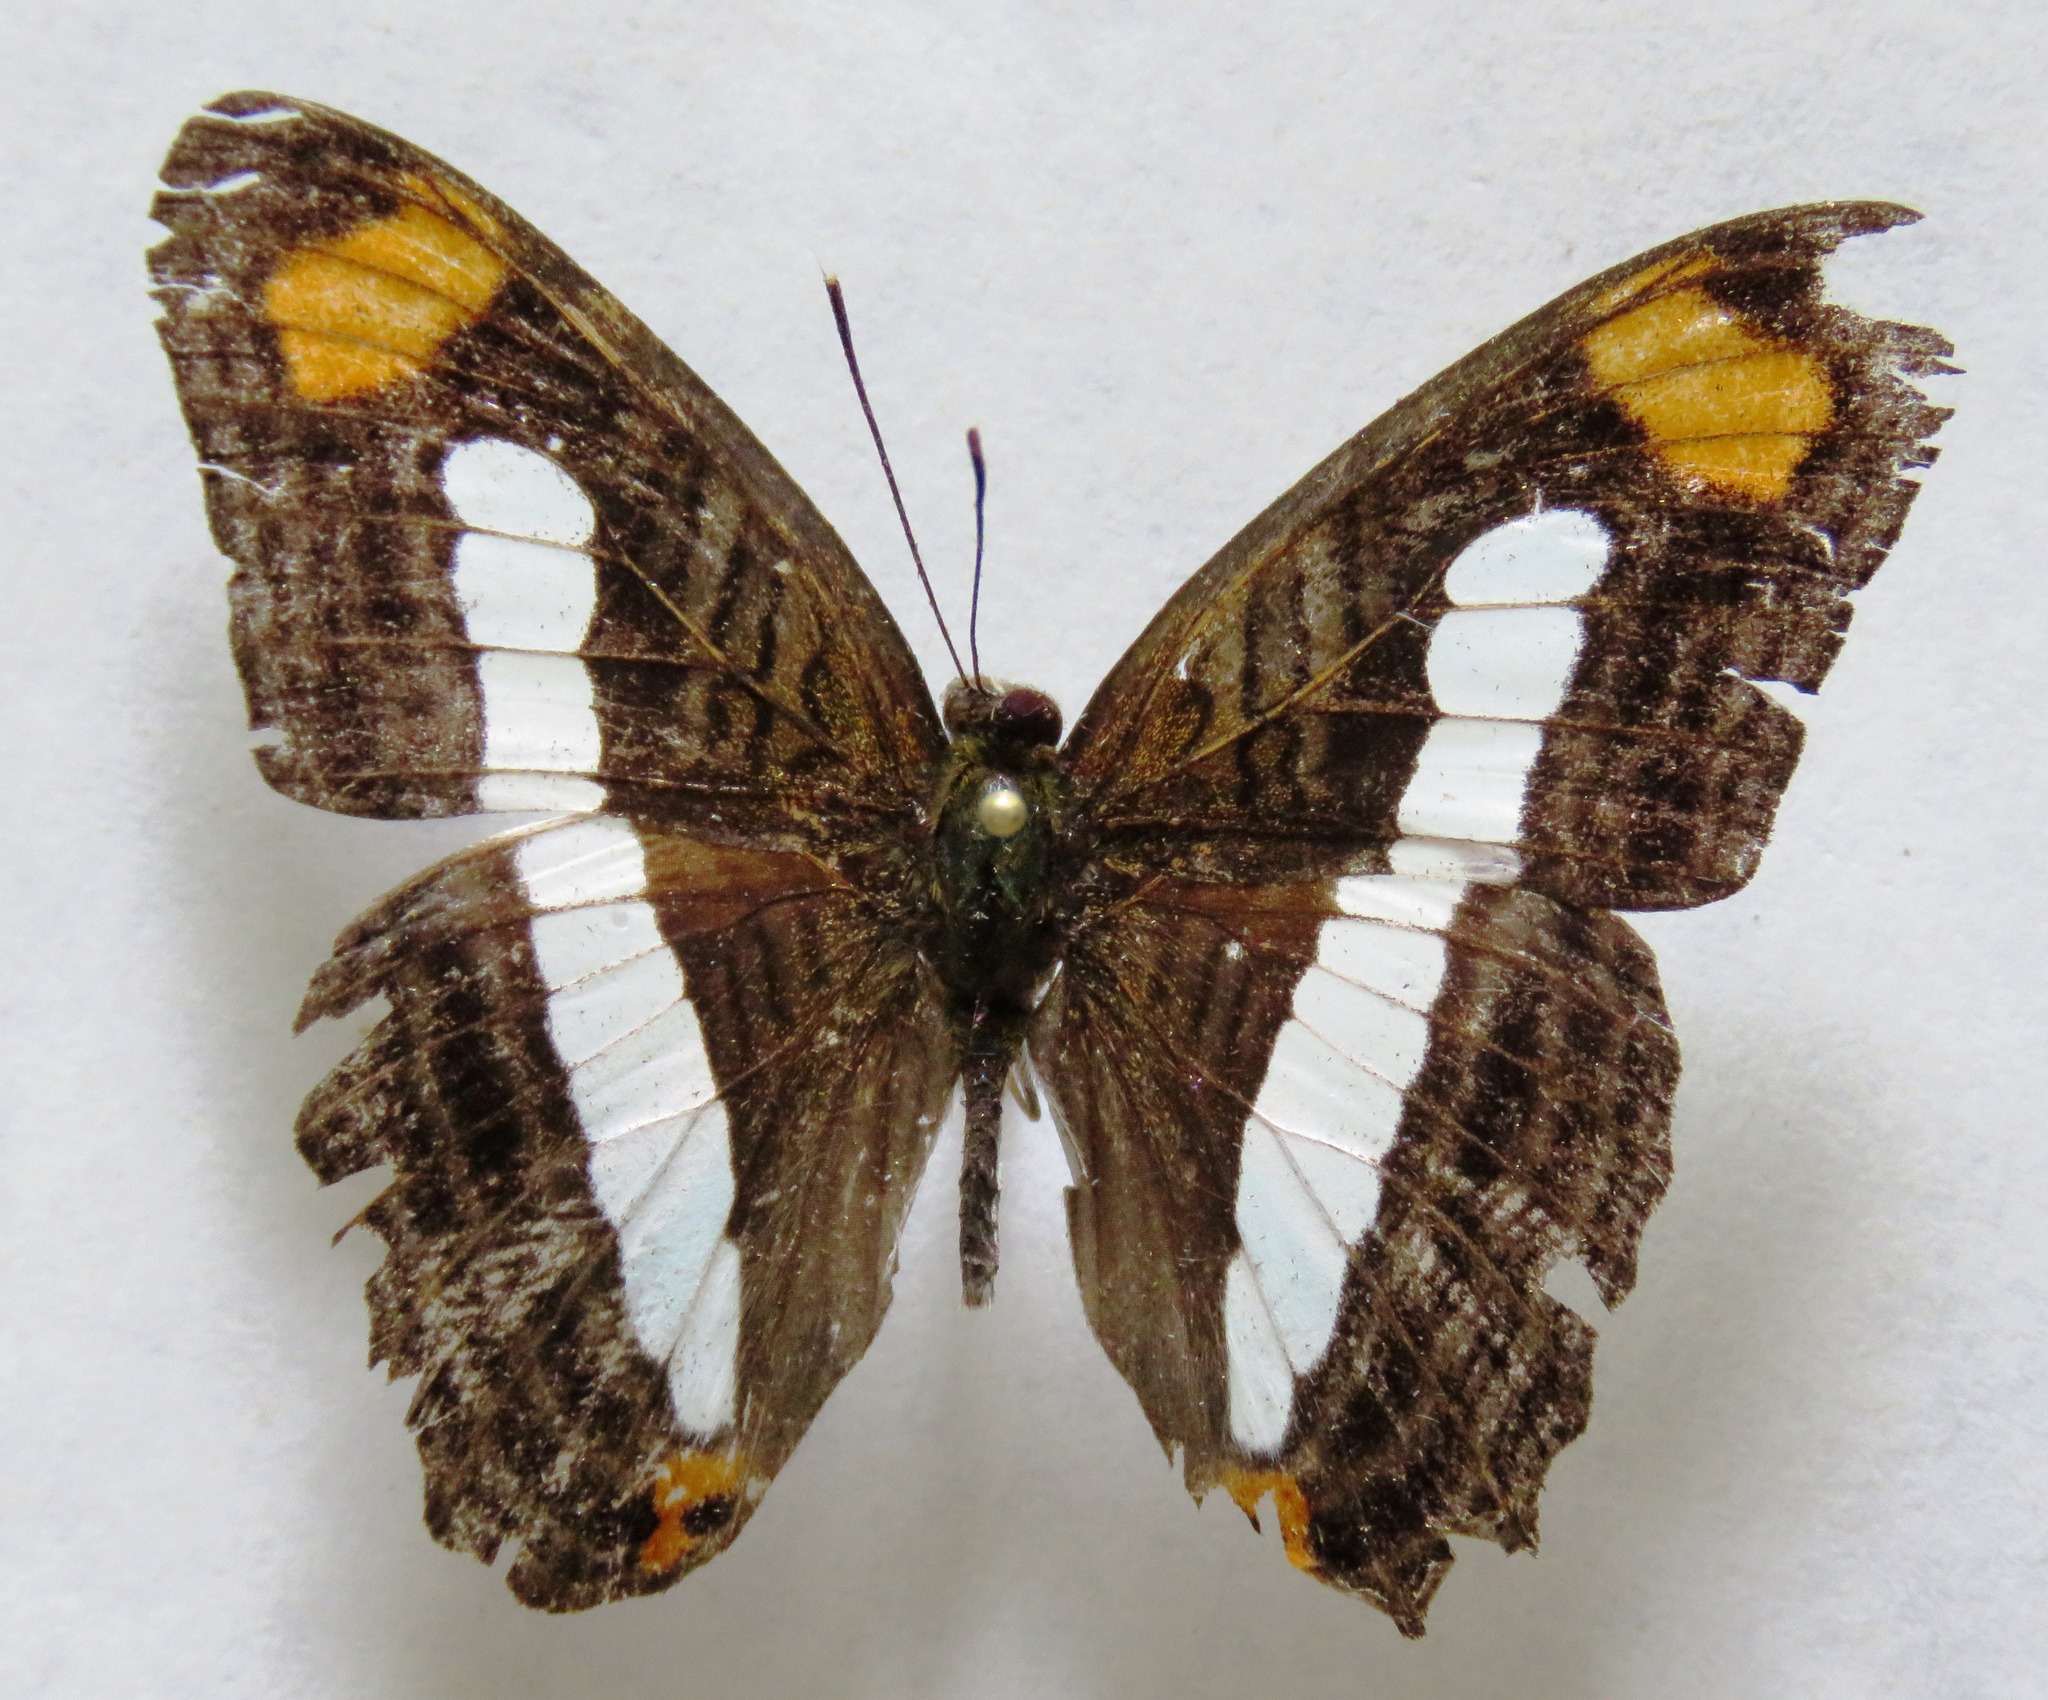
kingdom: Animalia
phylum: Arthropoda
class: Insecta
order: Lepidoptera
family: Nymphalidae
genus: Limenitis
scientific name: Limenitis iphiclus
